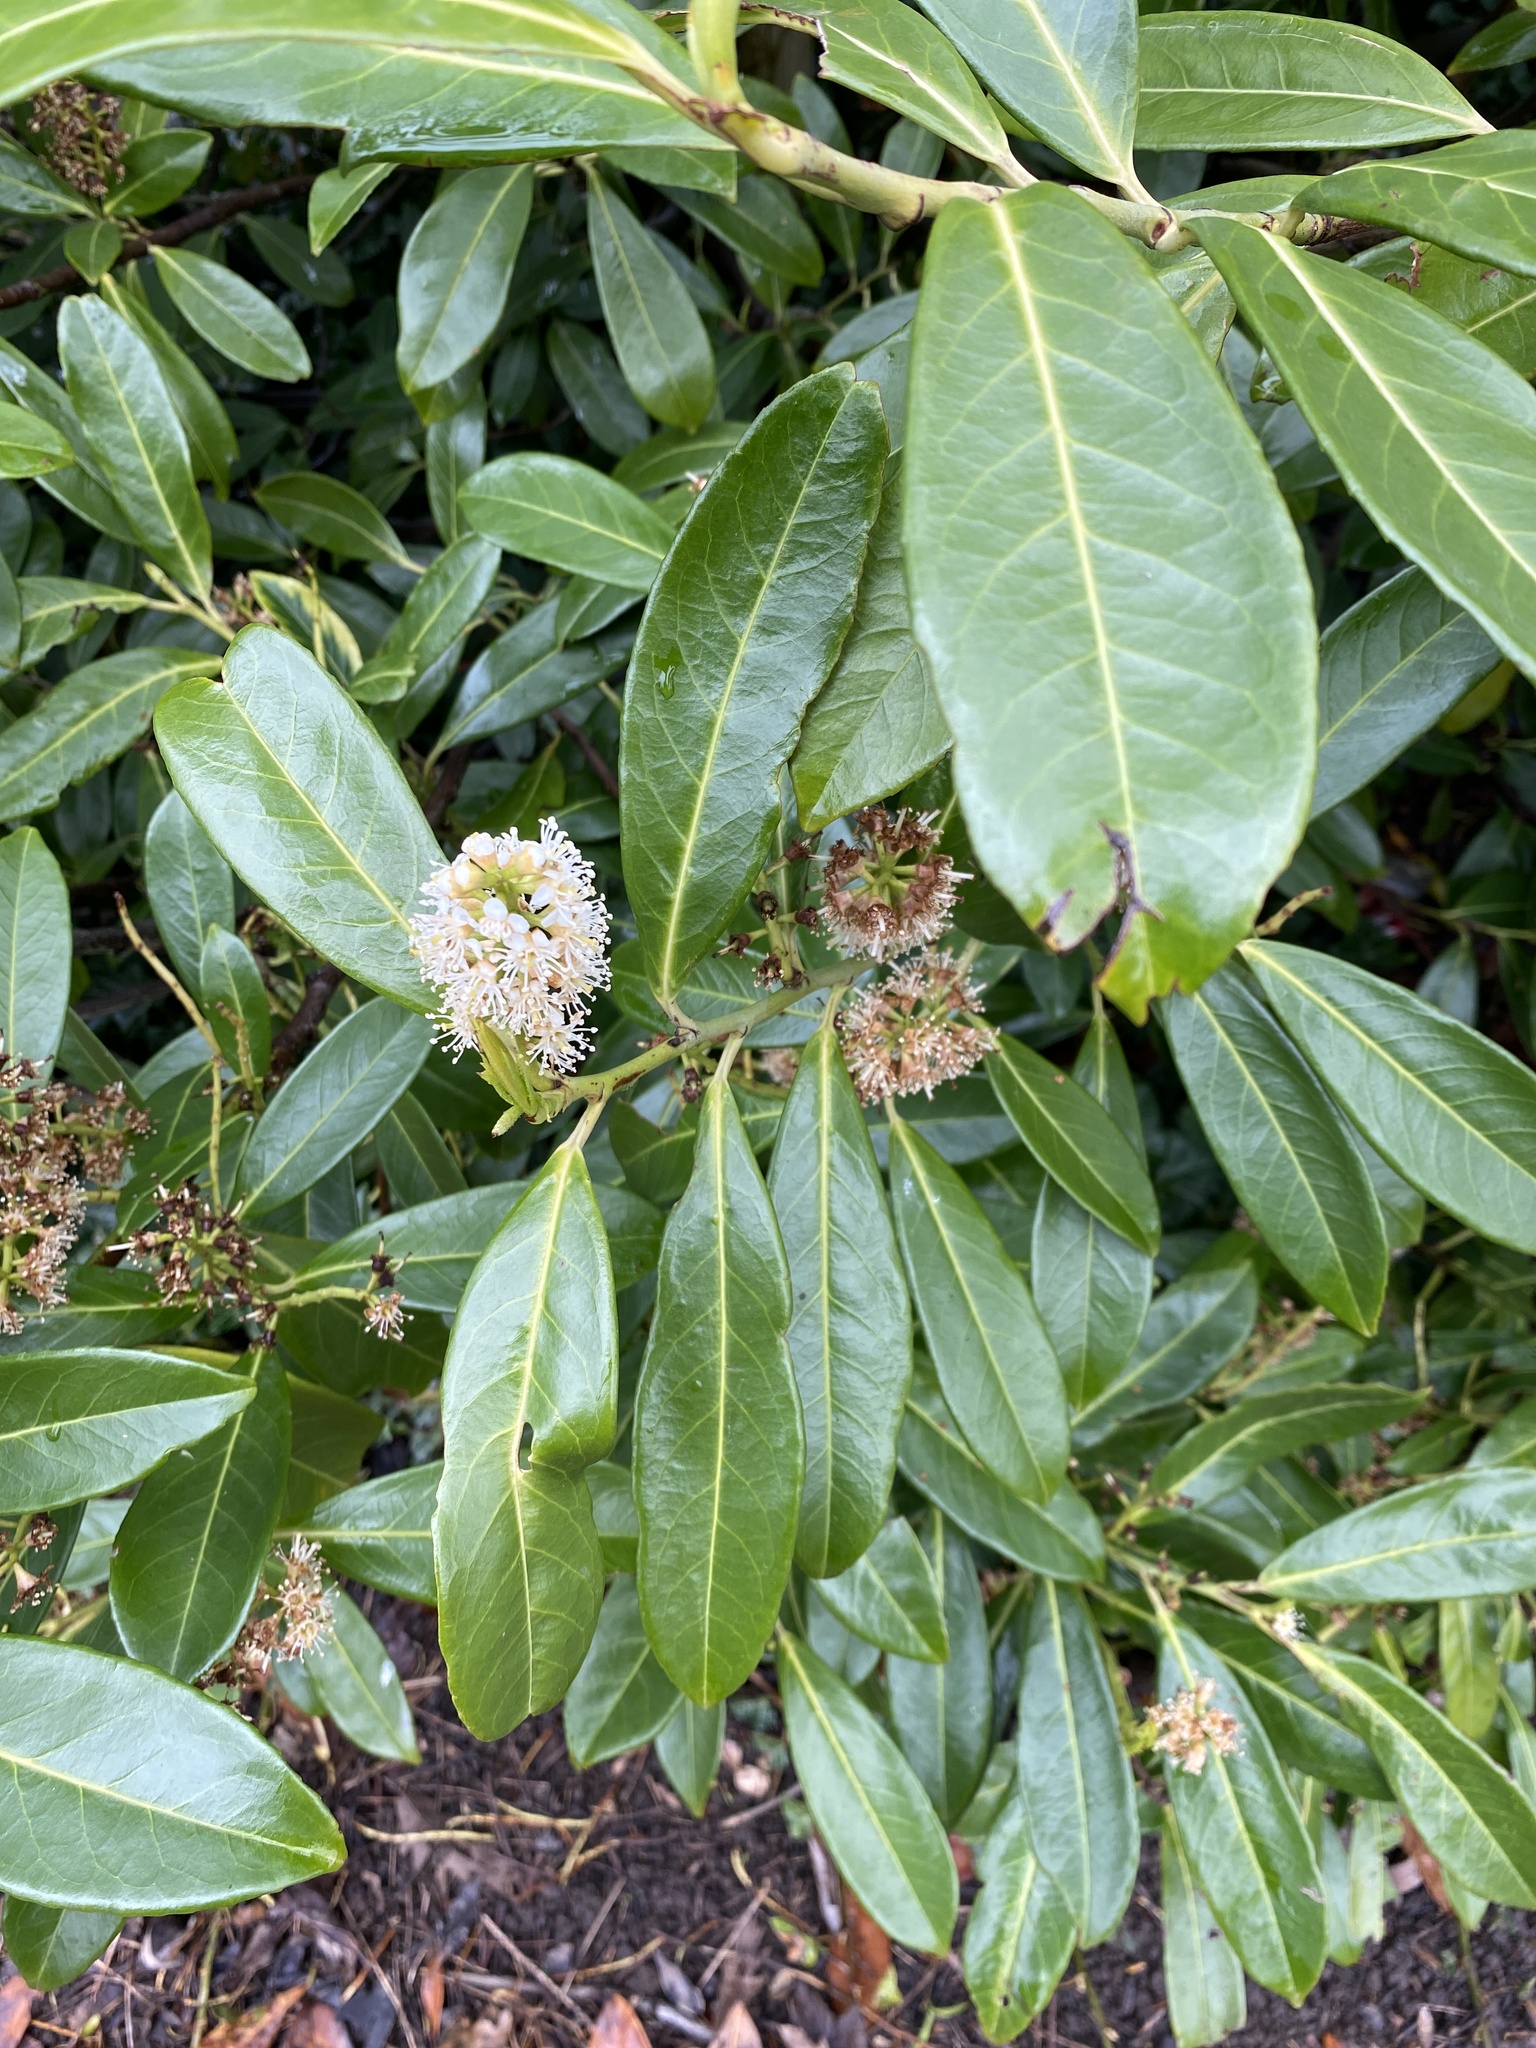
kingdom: Plantae
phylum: Tracheophyta
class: Magnoliopsida
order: Rosales
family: Rosaceae
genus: Prunus
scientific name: Prunus laurocerasus
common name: Cherry laurel
